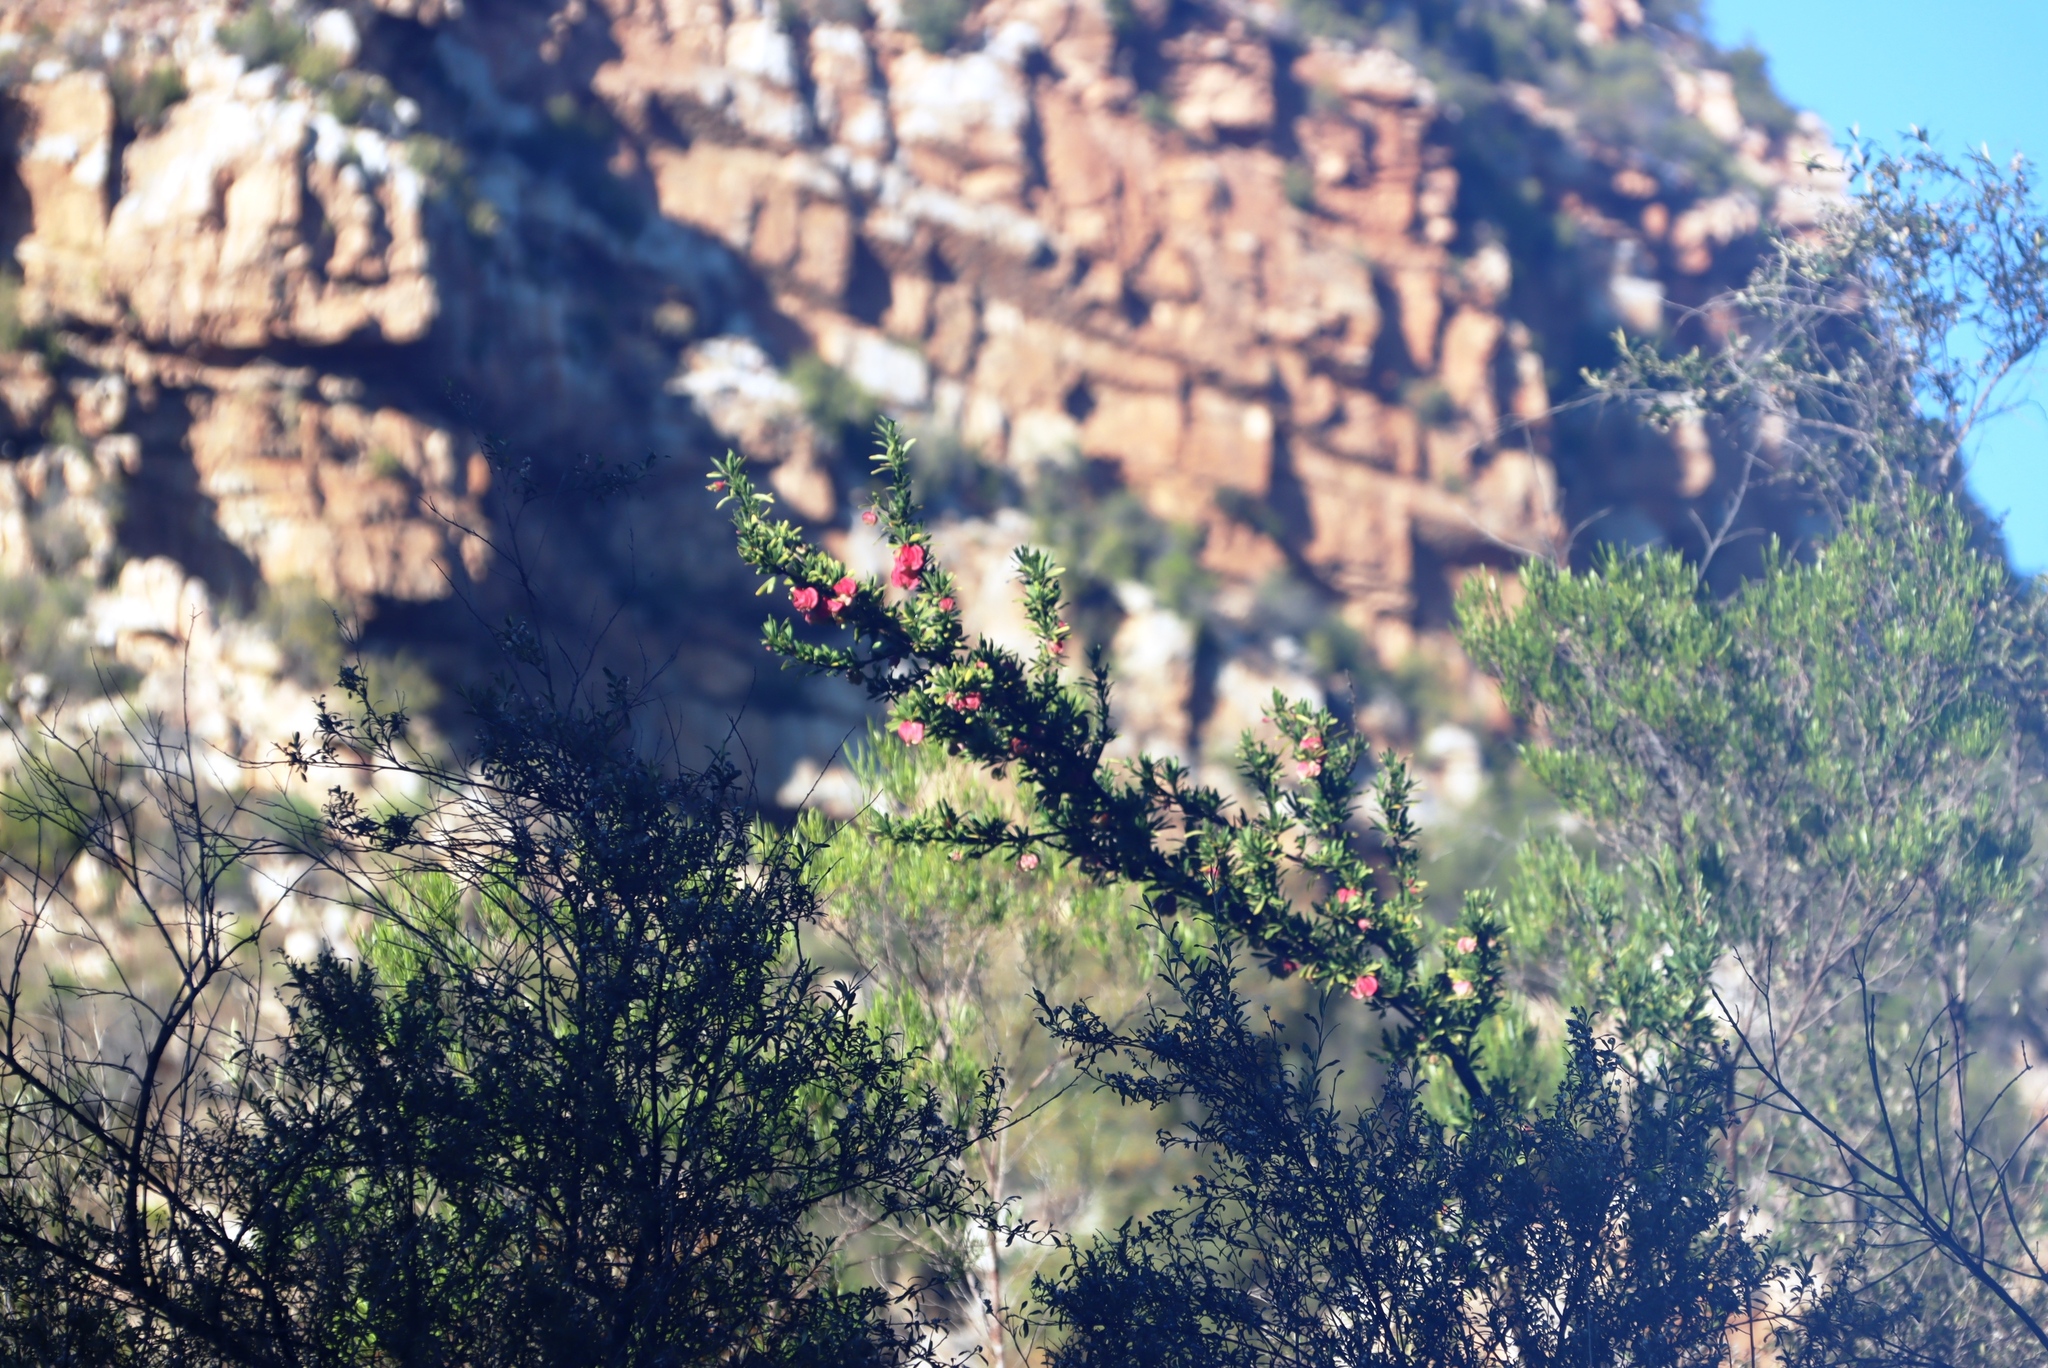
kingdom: Plantae
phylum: Tracheophyta
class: Magnoliopsida
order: Sapindales
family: Meliaceae
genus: Nymania
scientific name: Nymania capensis
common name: Chinese lantern tree
